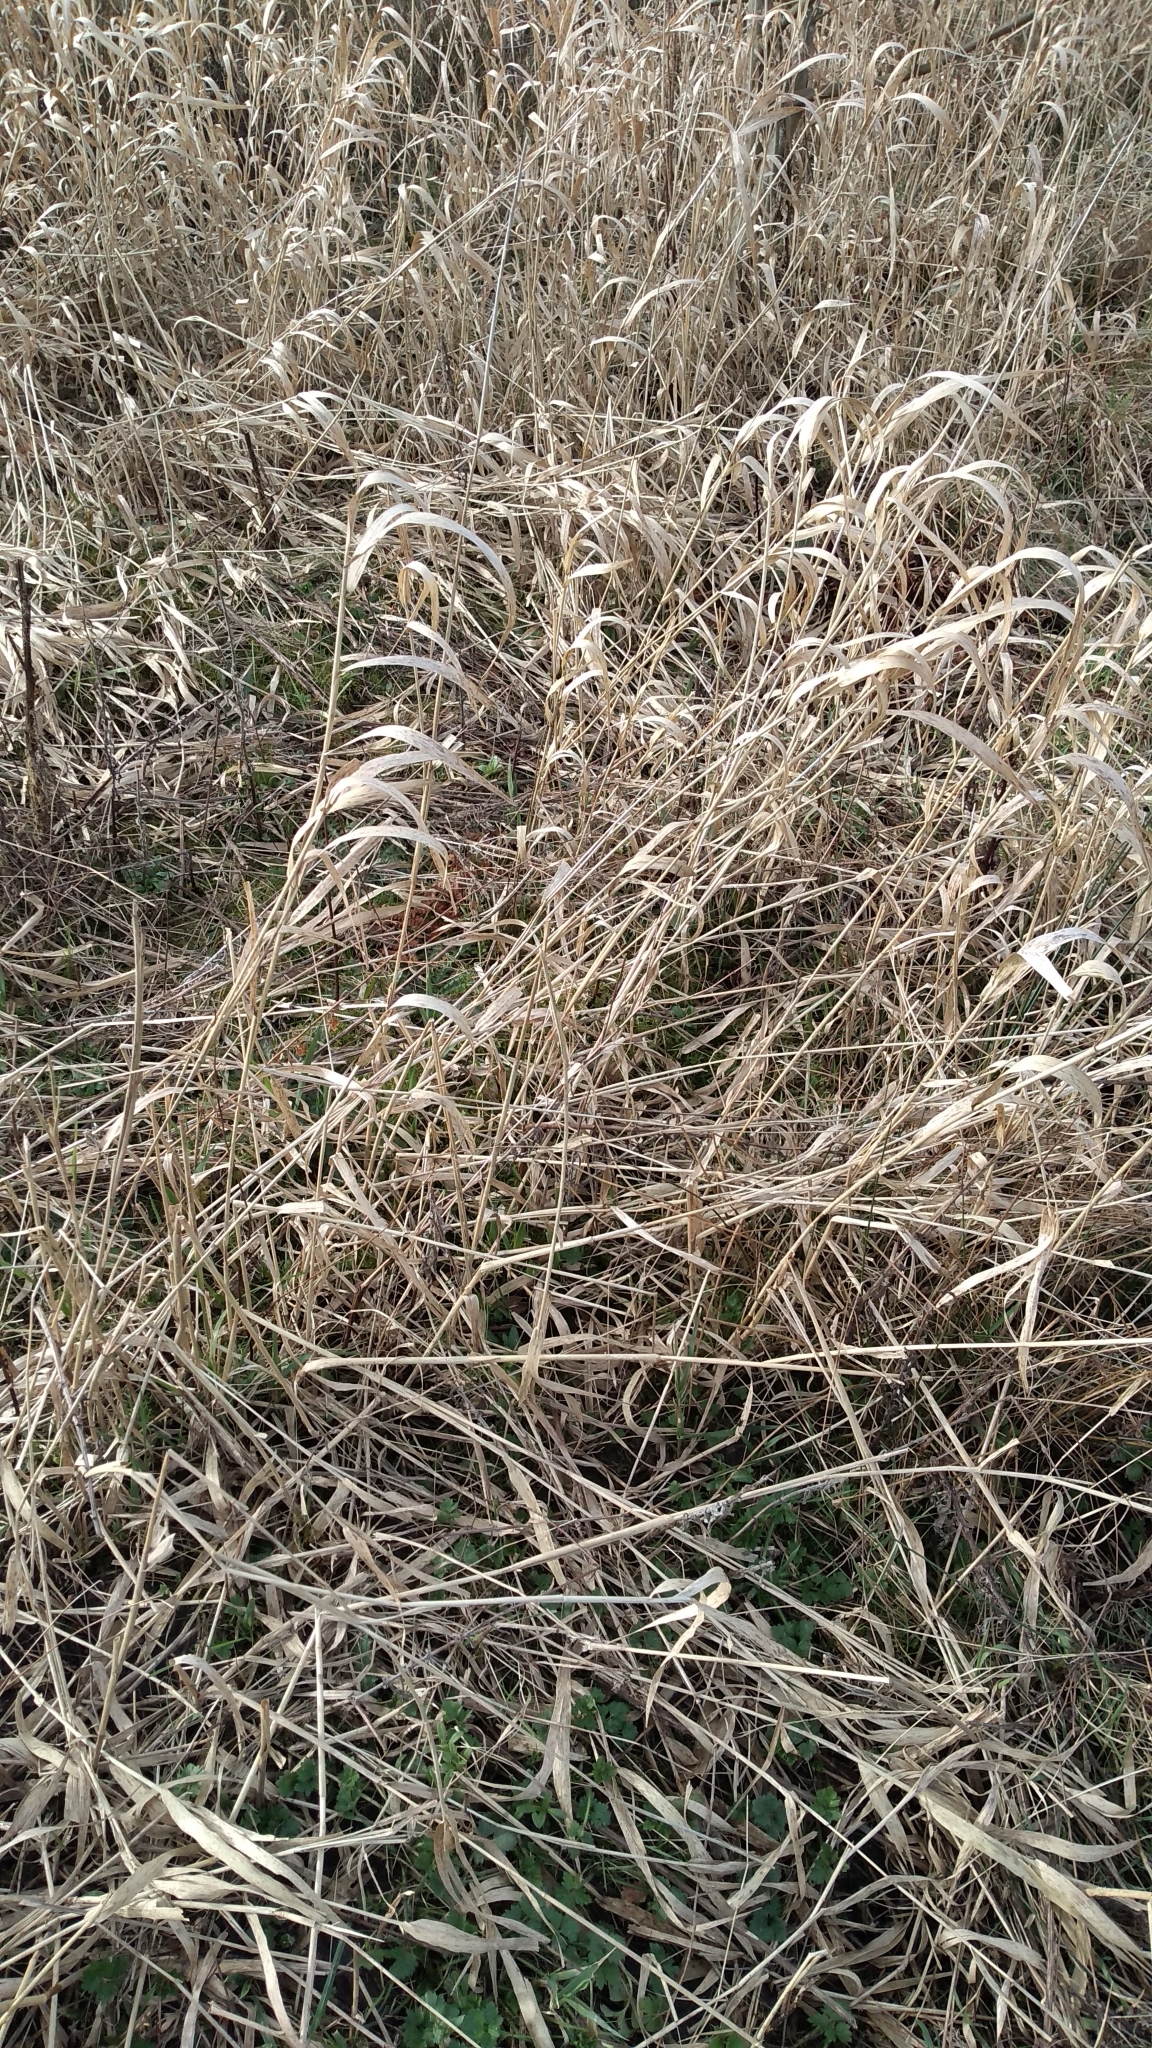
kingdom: Plantae
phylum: Tracheophyta
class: Liliopsida
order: Poales
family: Poaceae
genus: Phalaris
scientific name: Phalaris arundinacea
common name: Reed canary-grass
